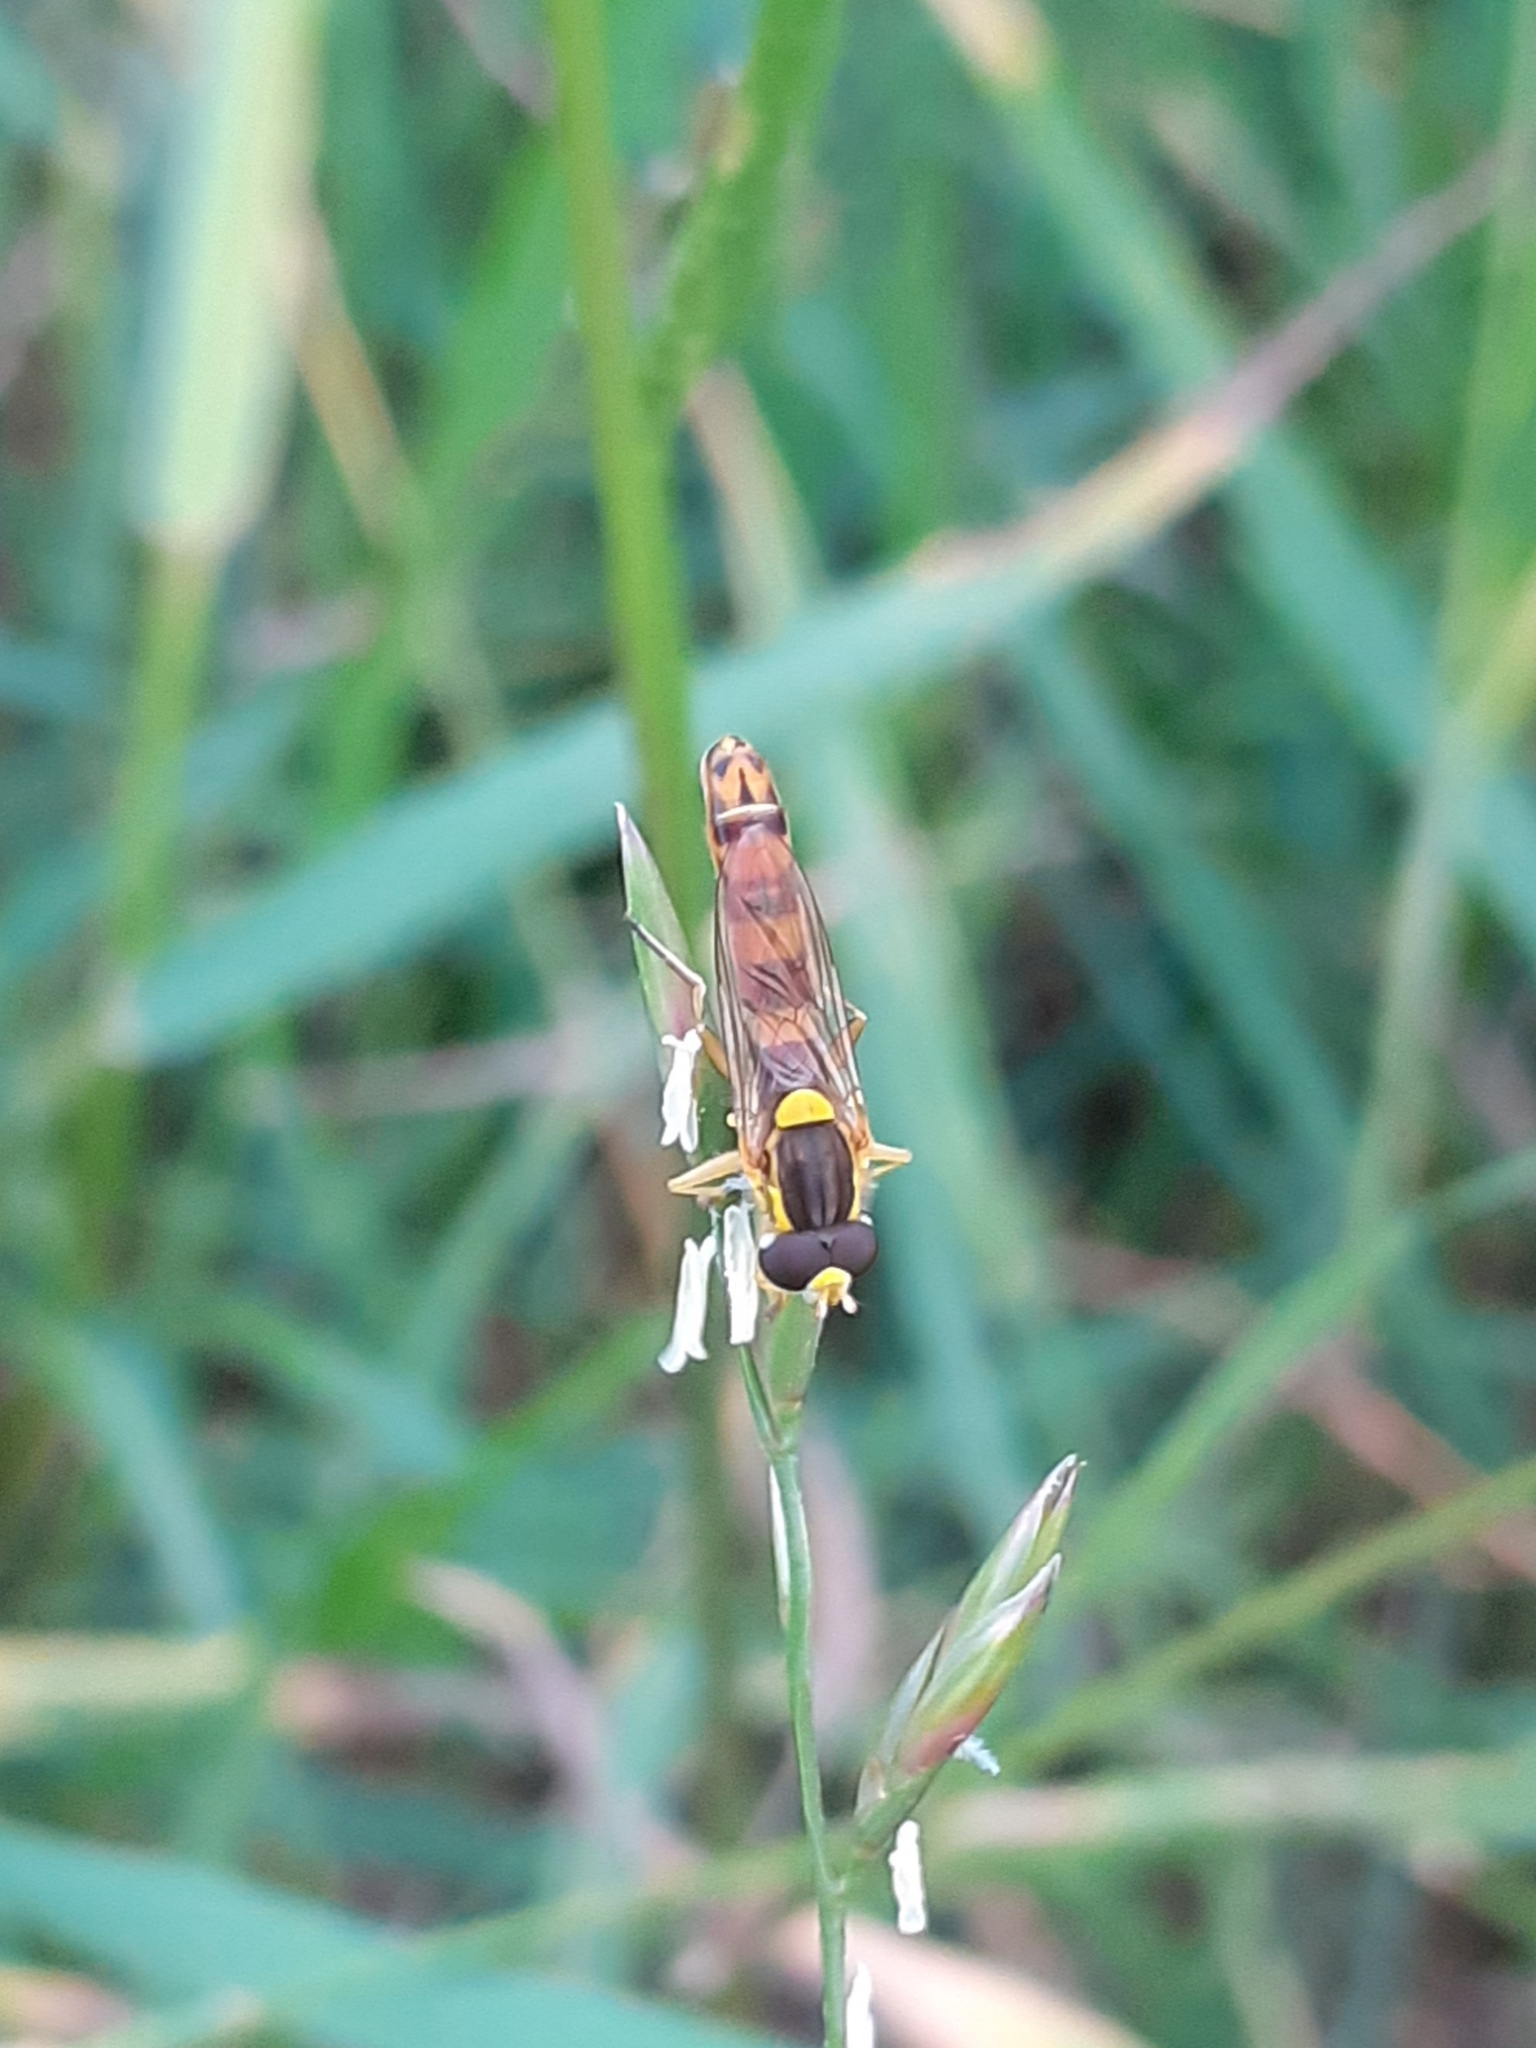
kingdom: Animalia
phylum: Arthropoda
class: Insecta
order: Diptera
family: Syrphidae
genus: Sphaerophoria
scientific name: Sphaerophoria scripta
